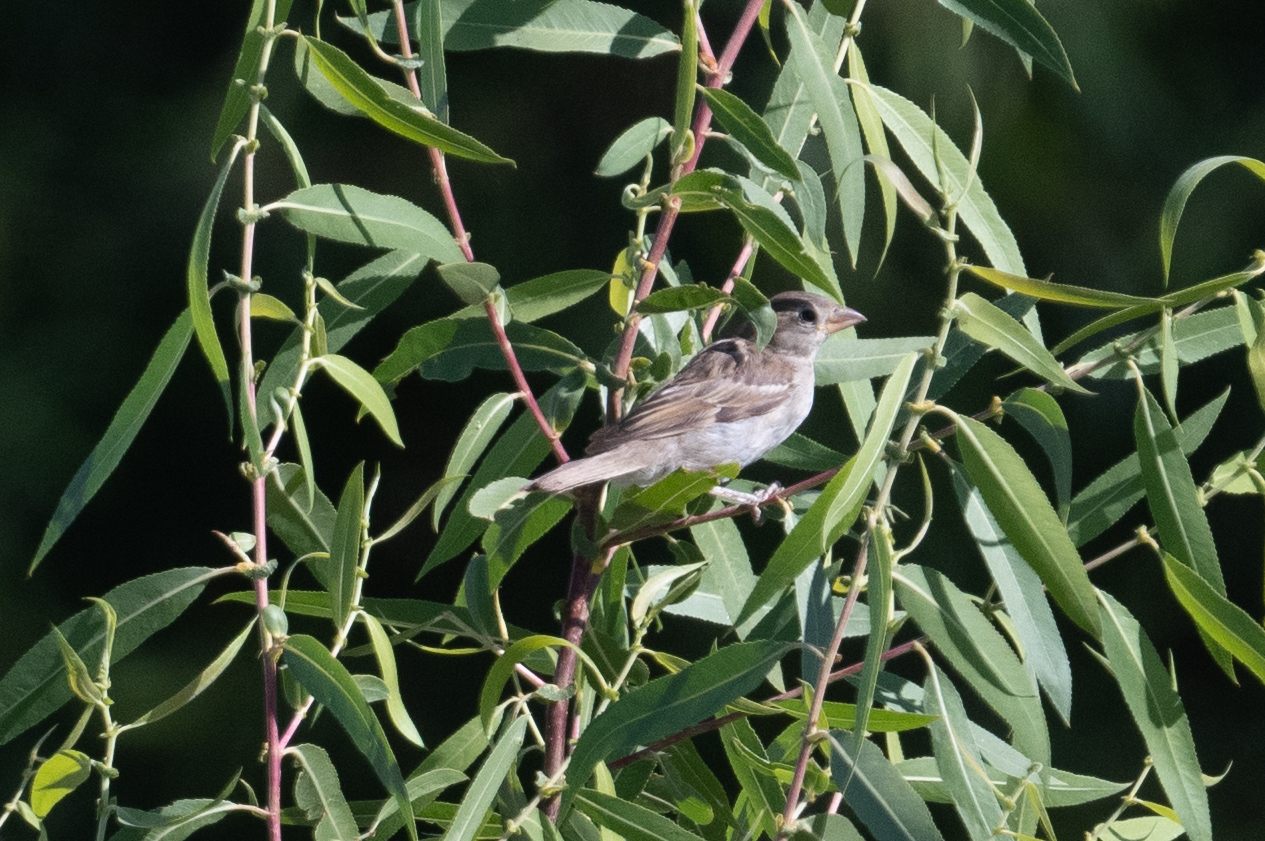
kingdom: Animalia
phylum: Chordata
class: Aves
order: Passeriformes
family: Passeridae
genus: Passer
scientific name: Passer domesticus
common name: House sparrow
